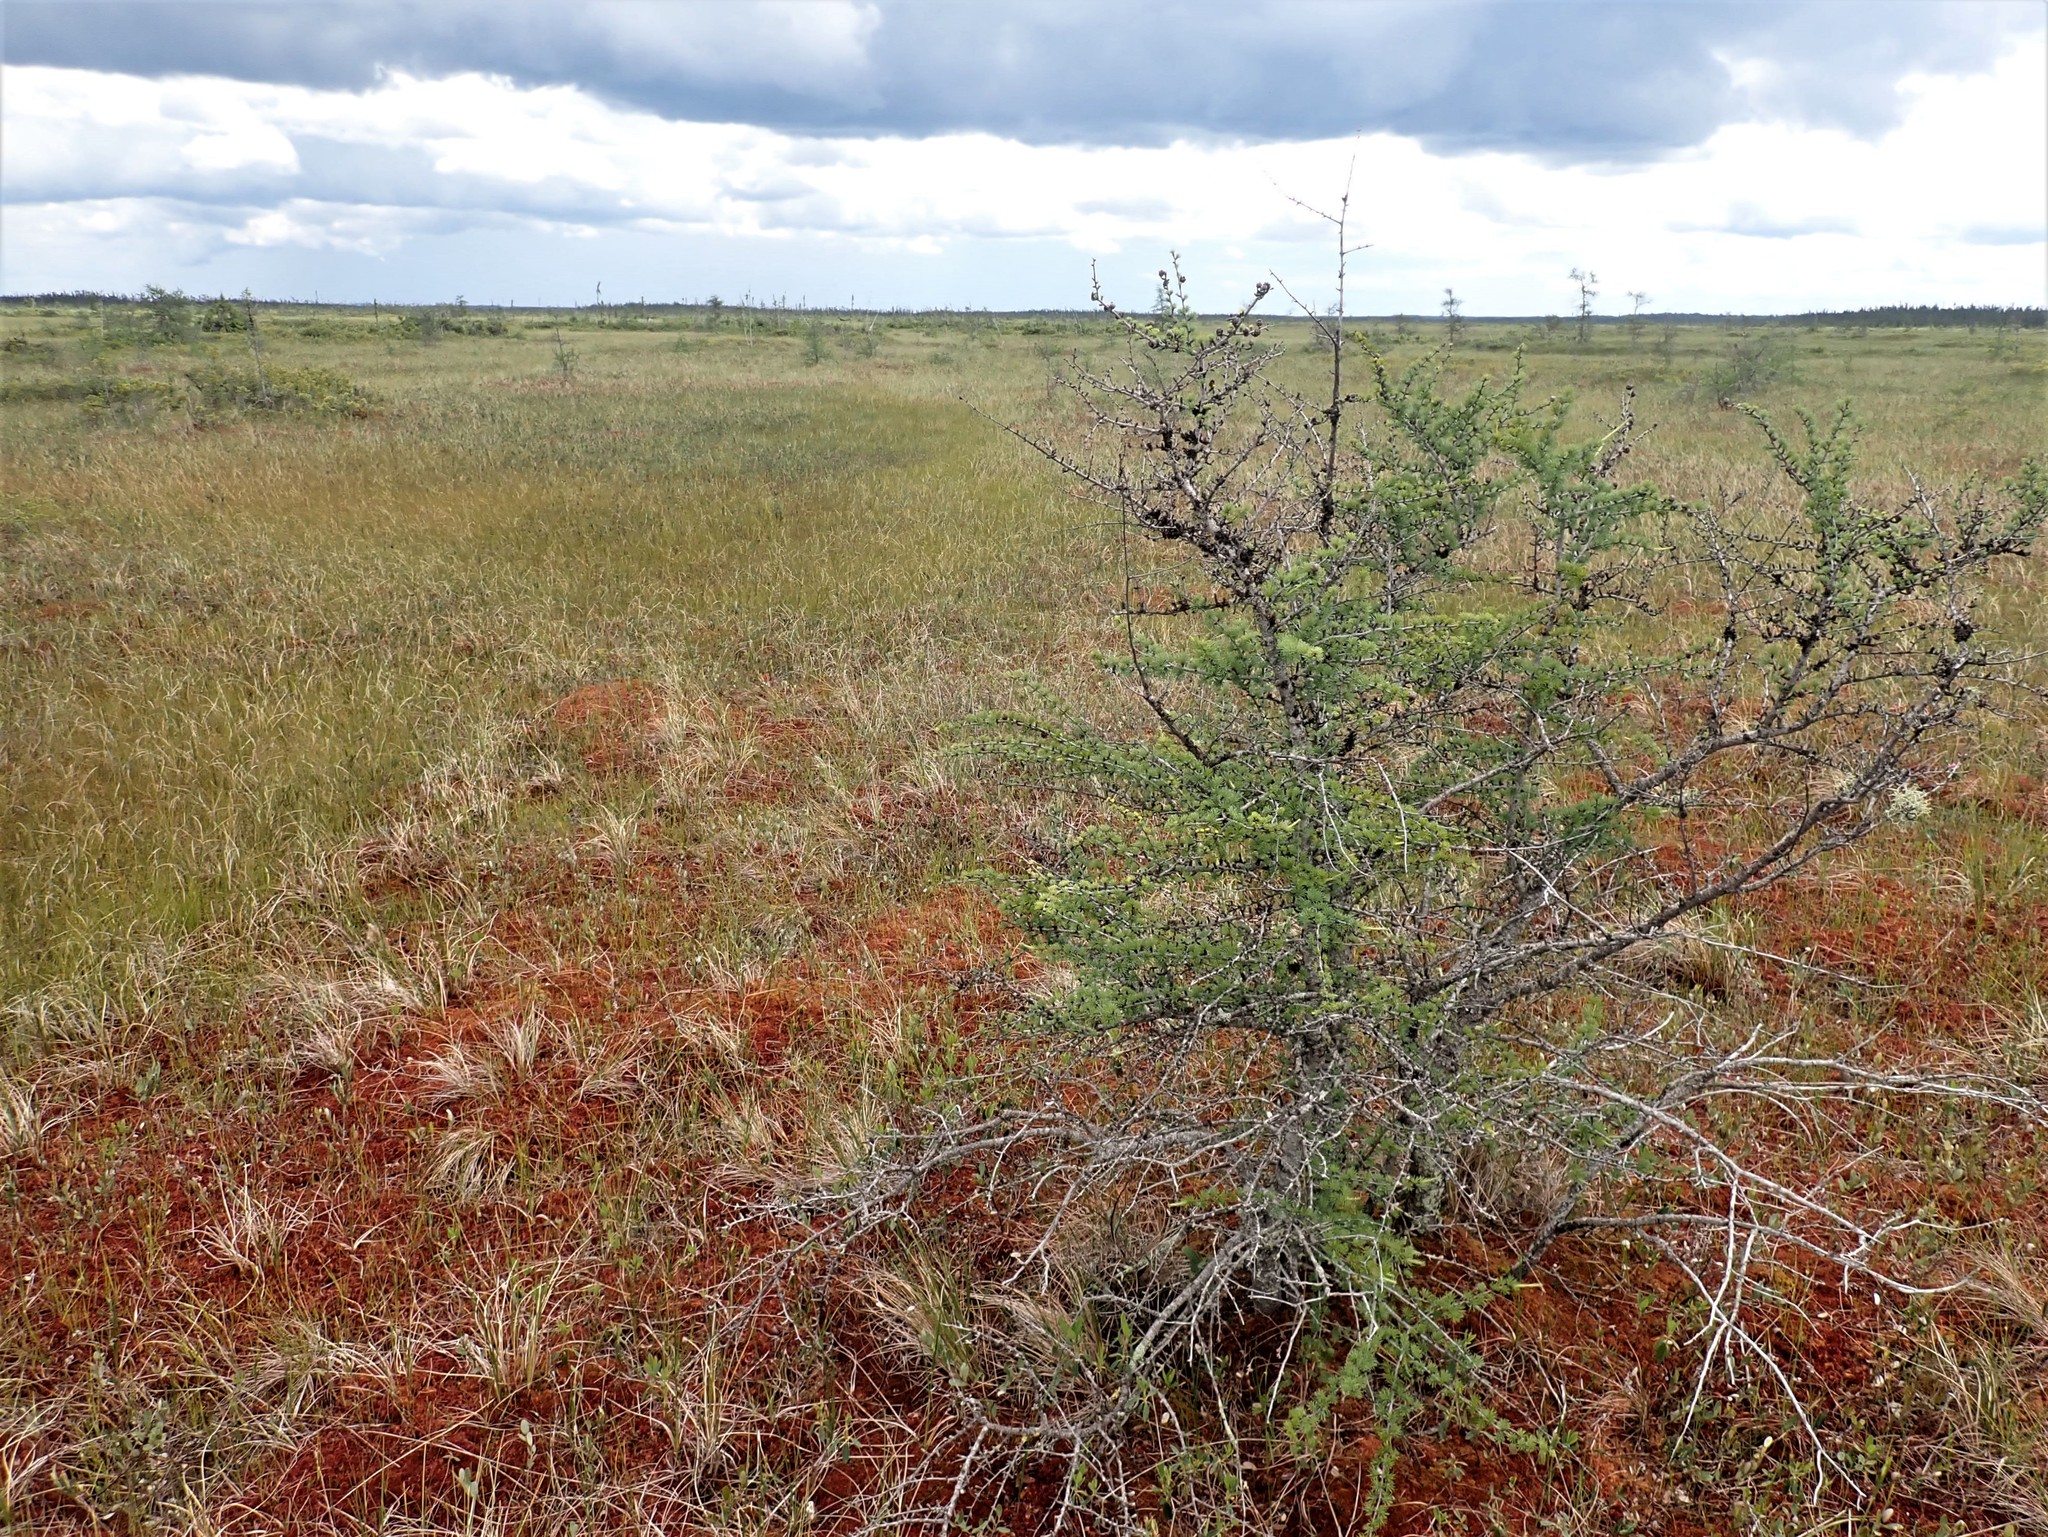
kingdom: Plantae
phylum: Tracheophyta
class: Pinopsida
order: Pinales
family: Pinaceae
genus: Larix
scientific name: Larix laricina
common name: American larch
